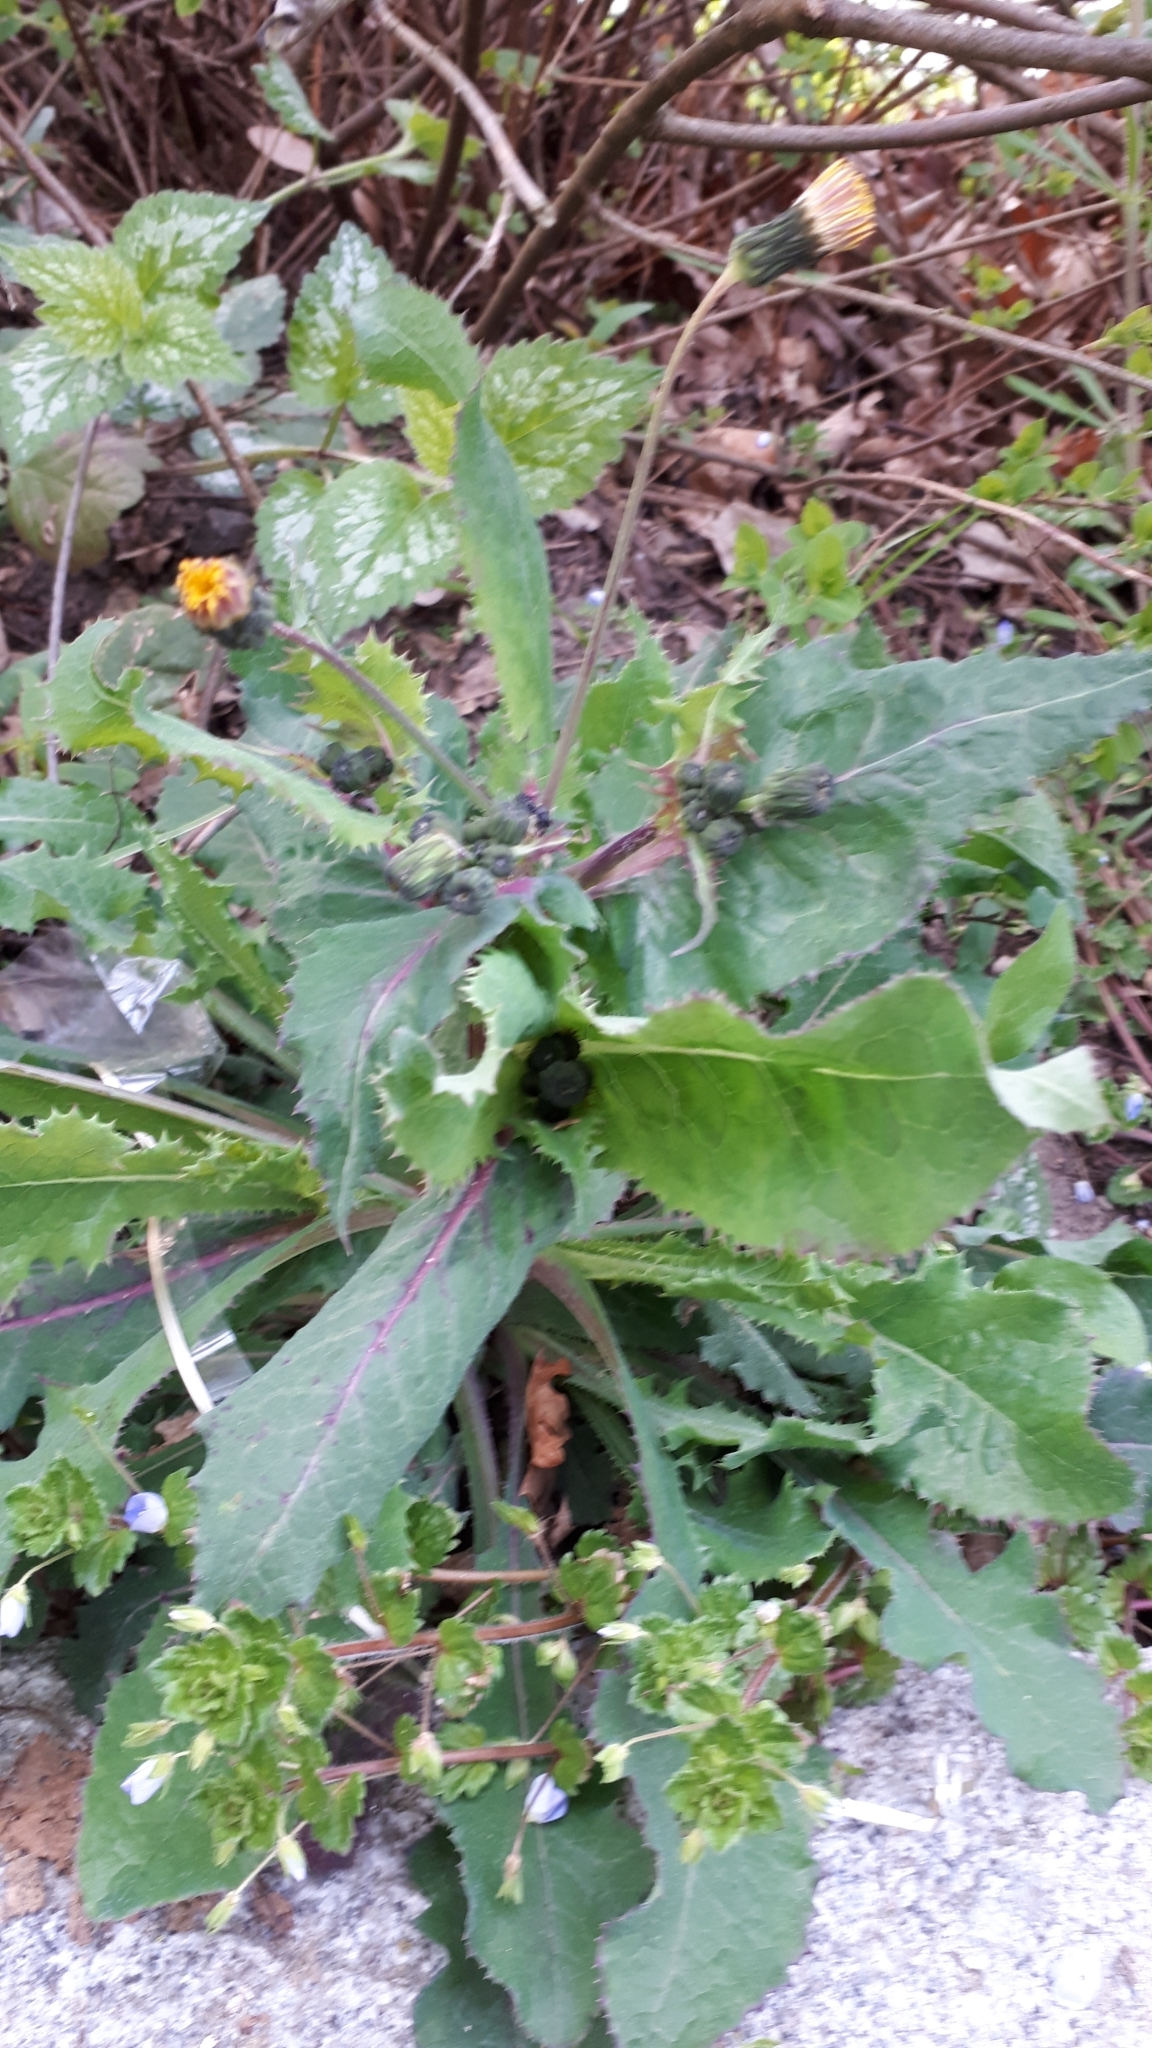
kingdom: Plantae
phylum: Tracheophyta
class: Magnoliopsida
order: Asterales
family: Asteraceae
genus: Sonchus
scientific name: Sonchus oleraceus
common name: Common sowthistle
